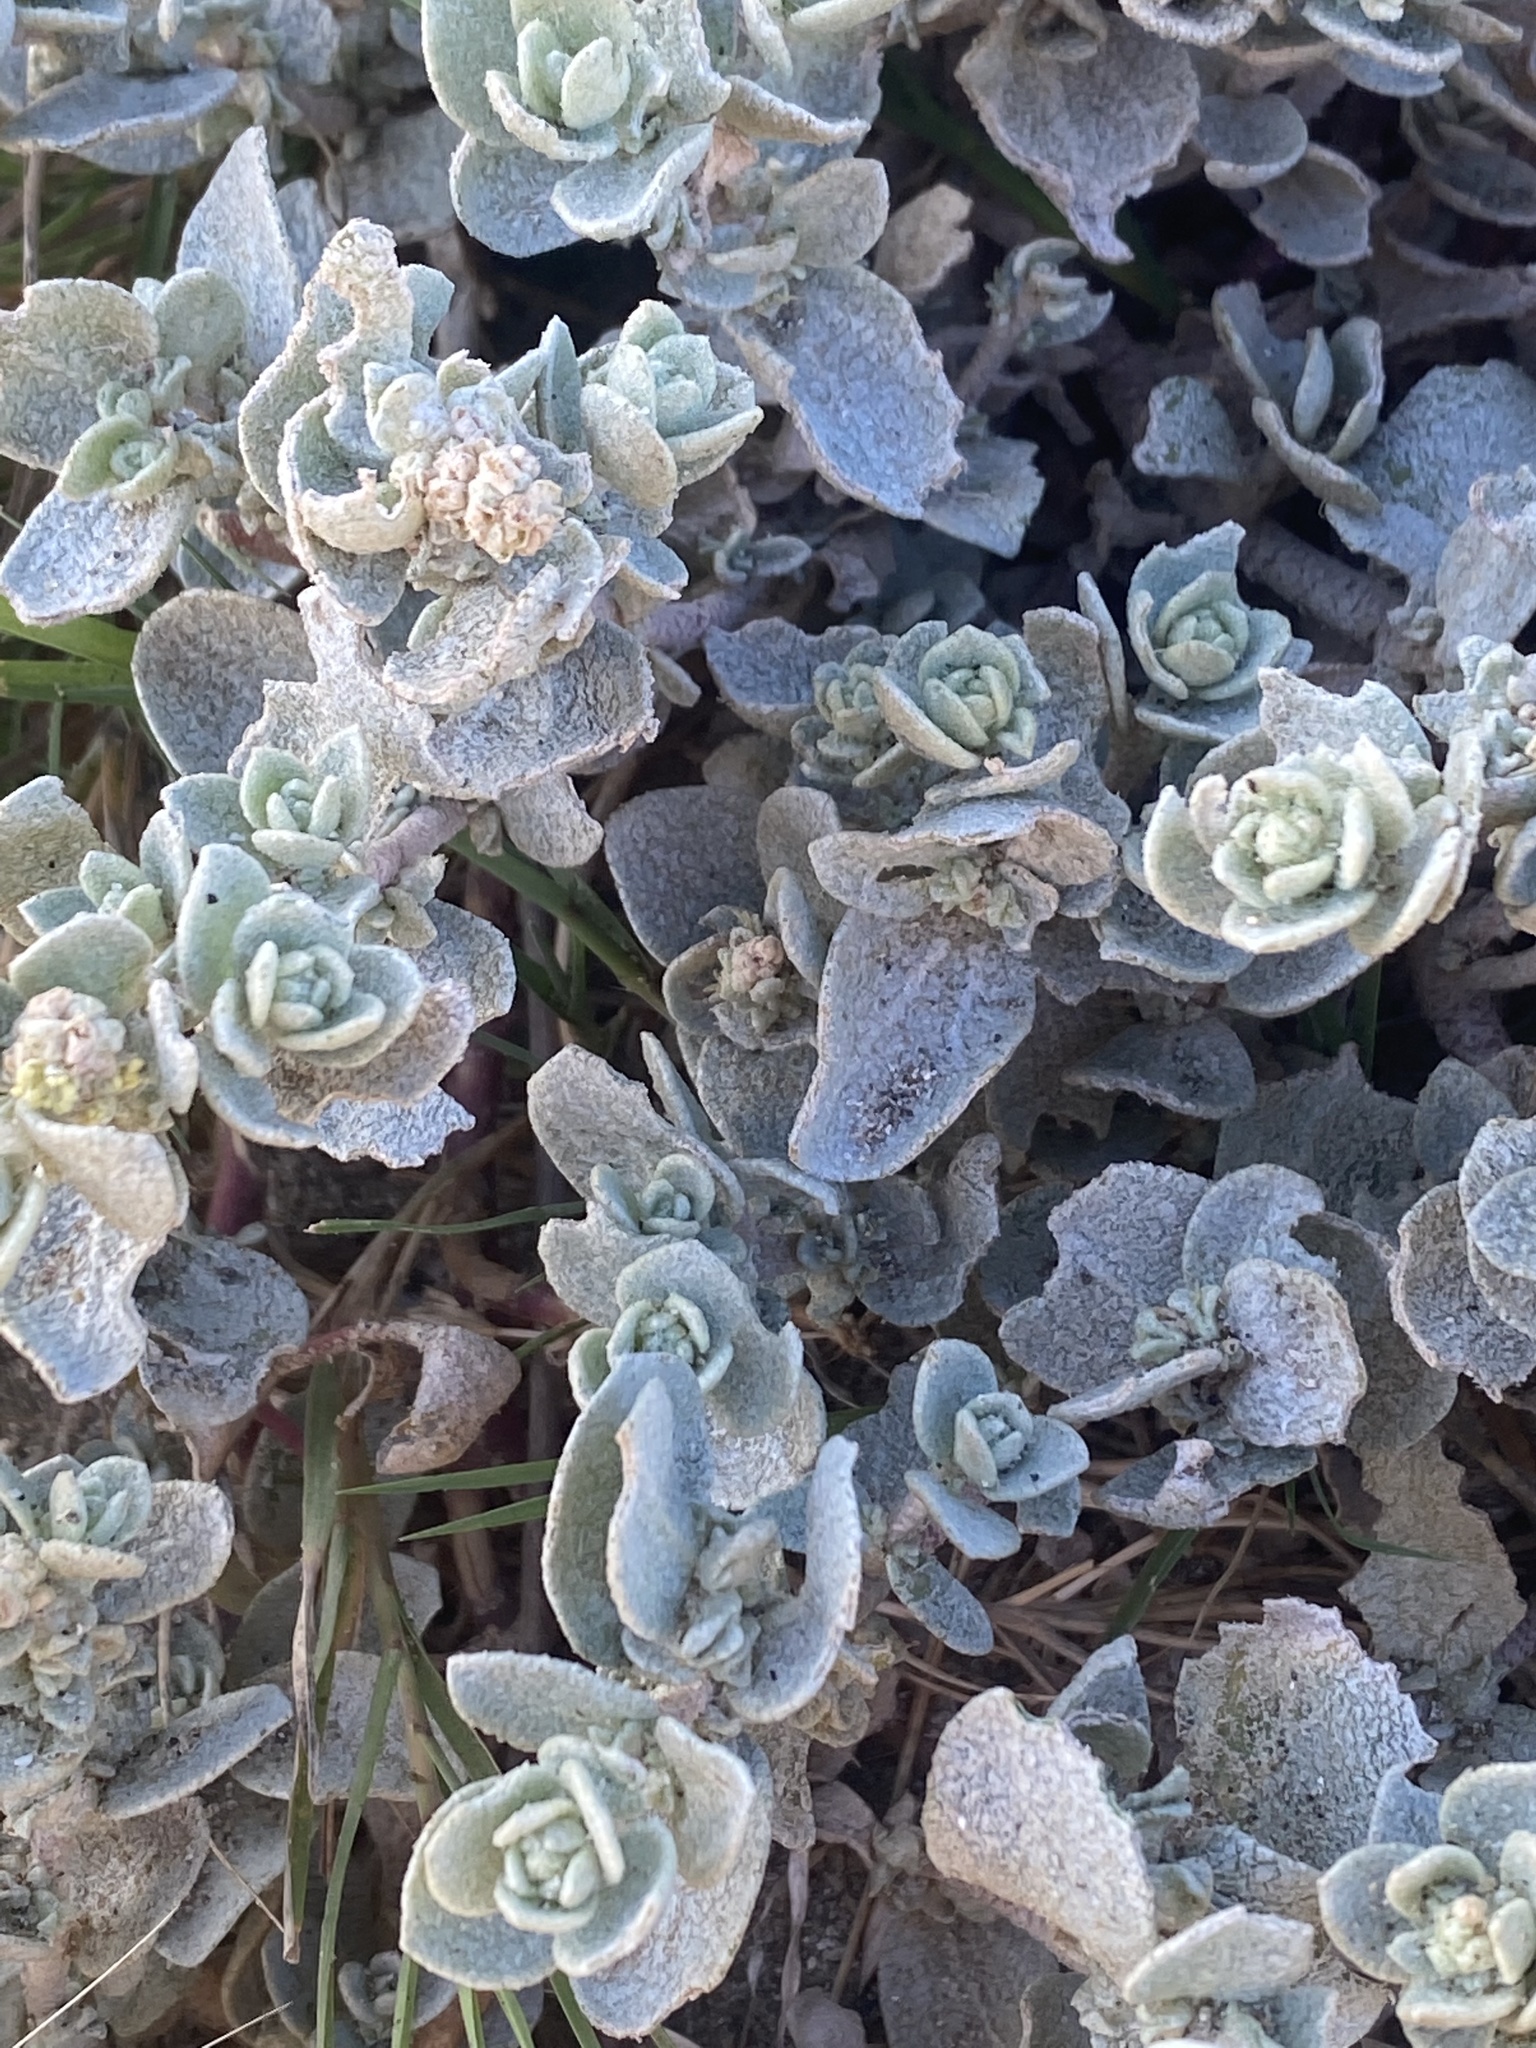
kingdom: Plantae
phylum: Tracheophyta
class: Magnoliopsida
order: Caryophyllales
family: Amaranthaceae
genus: Atriplex
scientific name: Atriplex leucophylla
